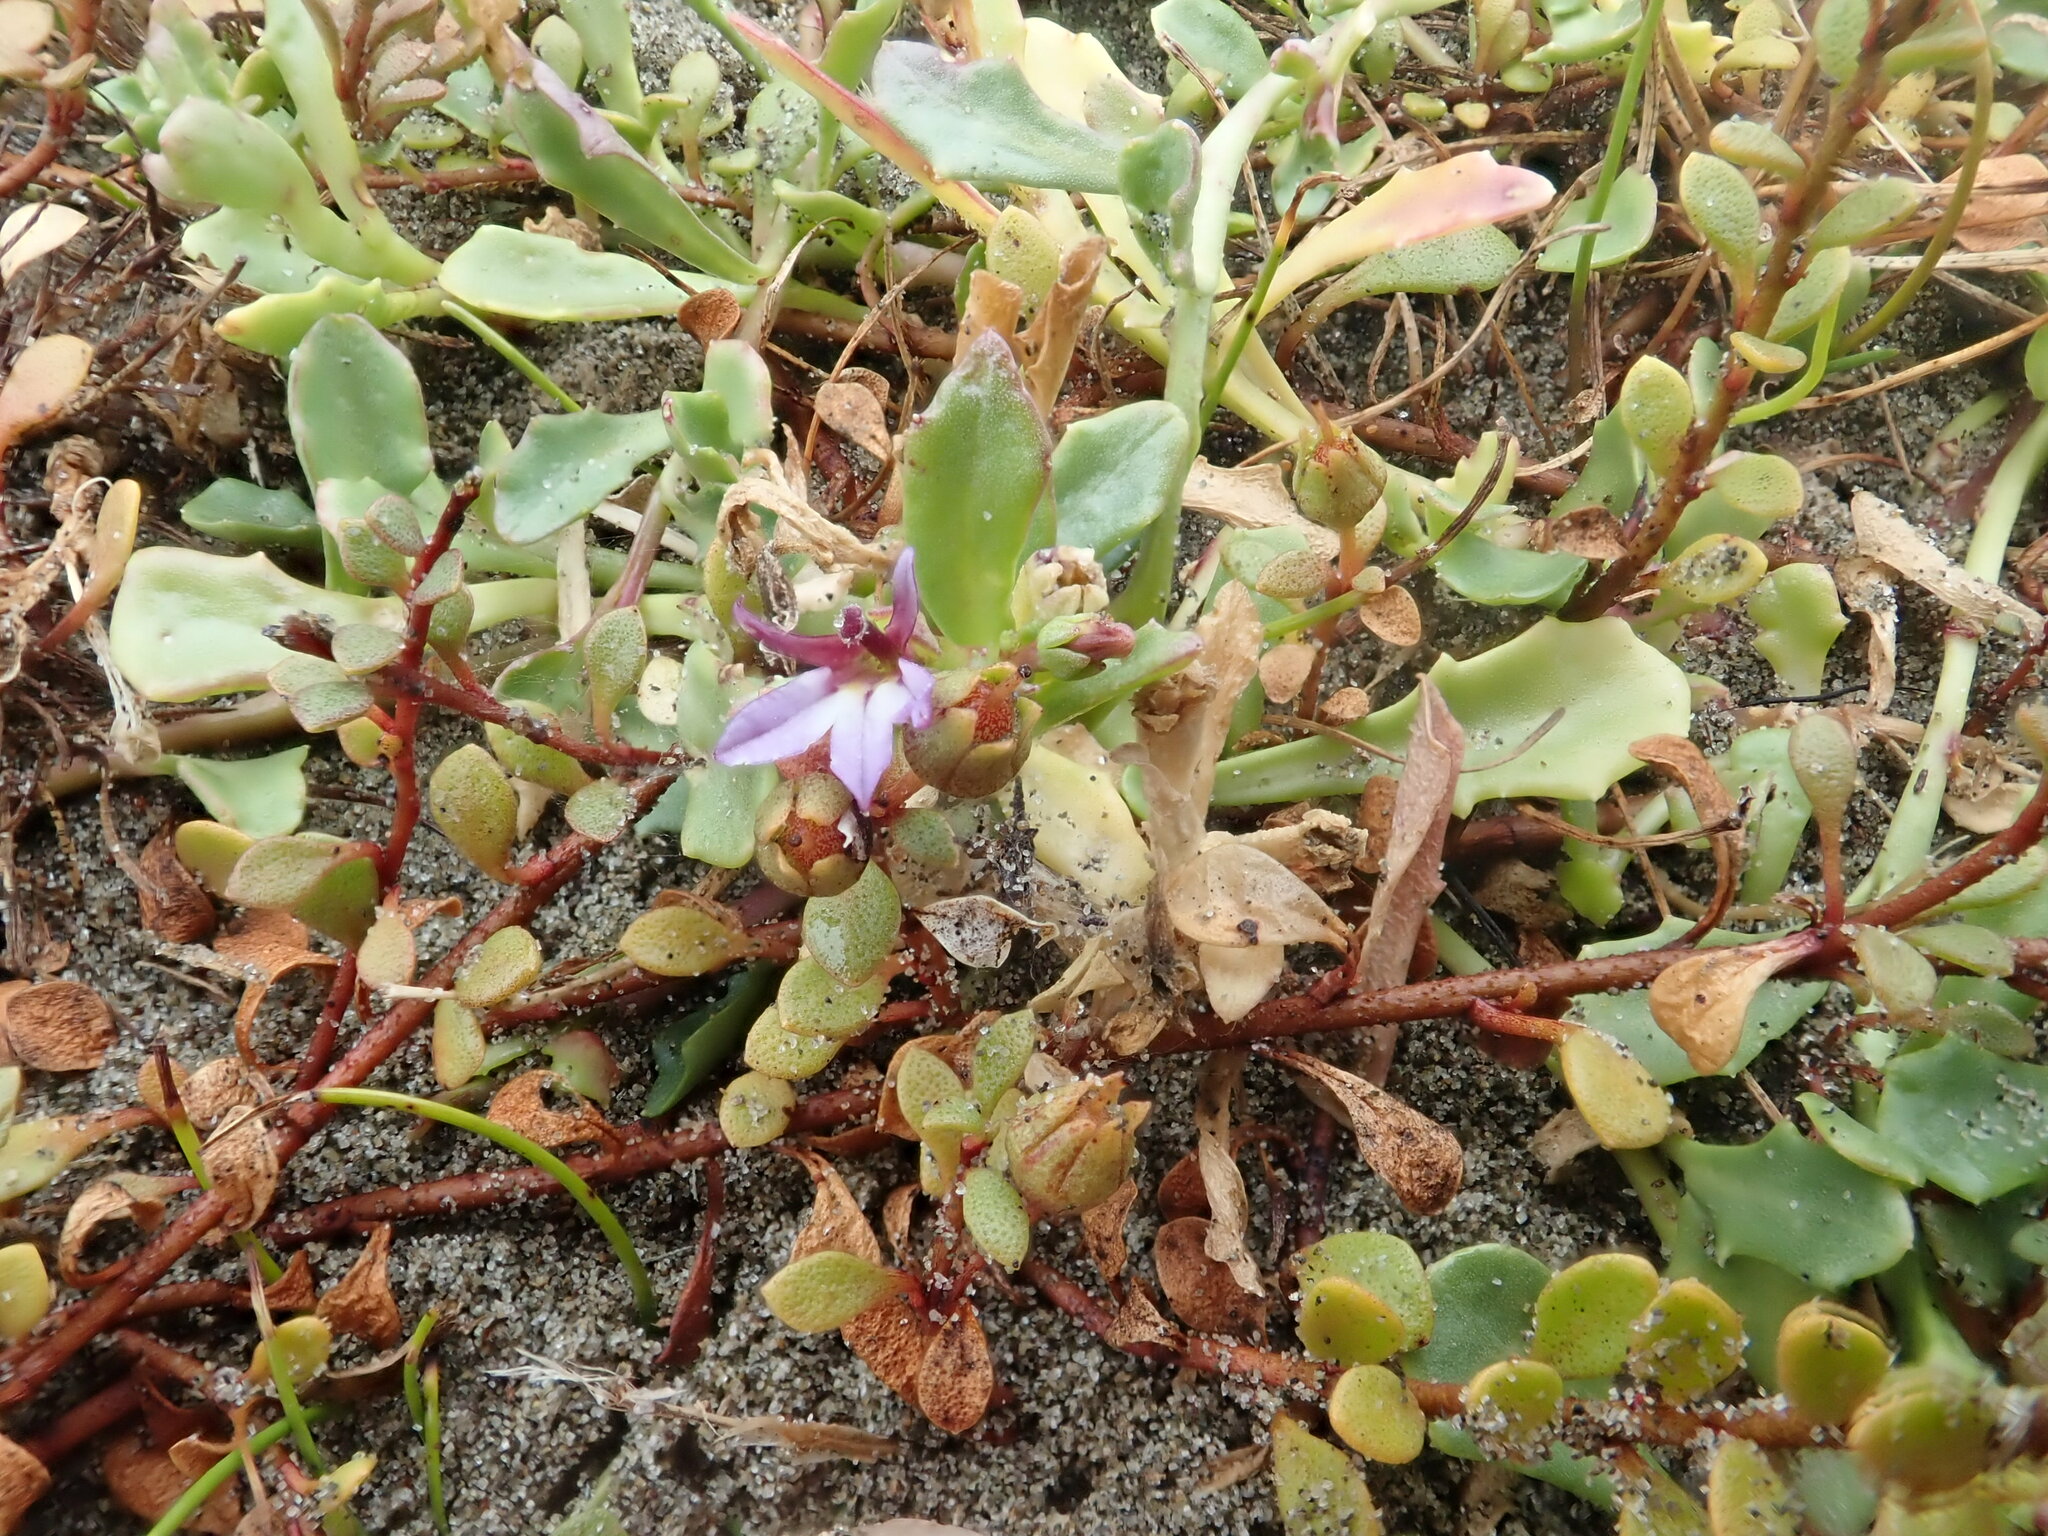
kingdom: Plantae
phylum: Tracheophyta
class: Magnoliopsida
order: Asterales
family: Campanulaceae
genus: Lobelia
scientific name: Lobelia anceps
